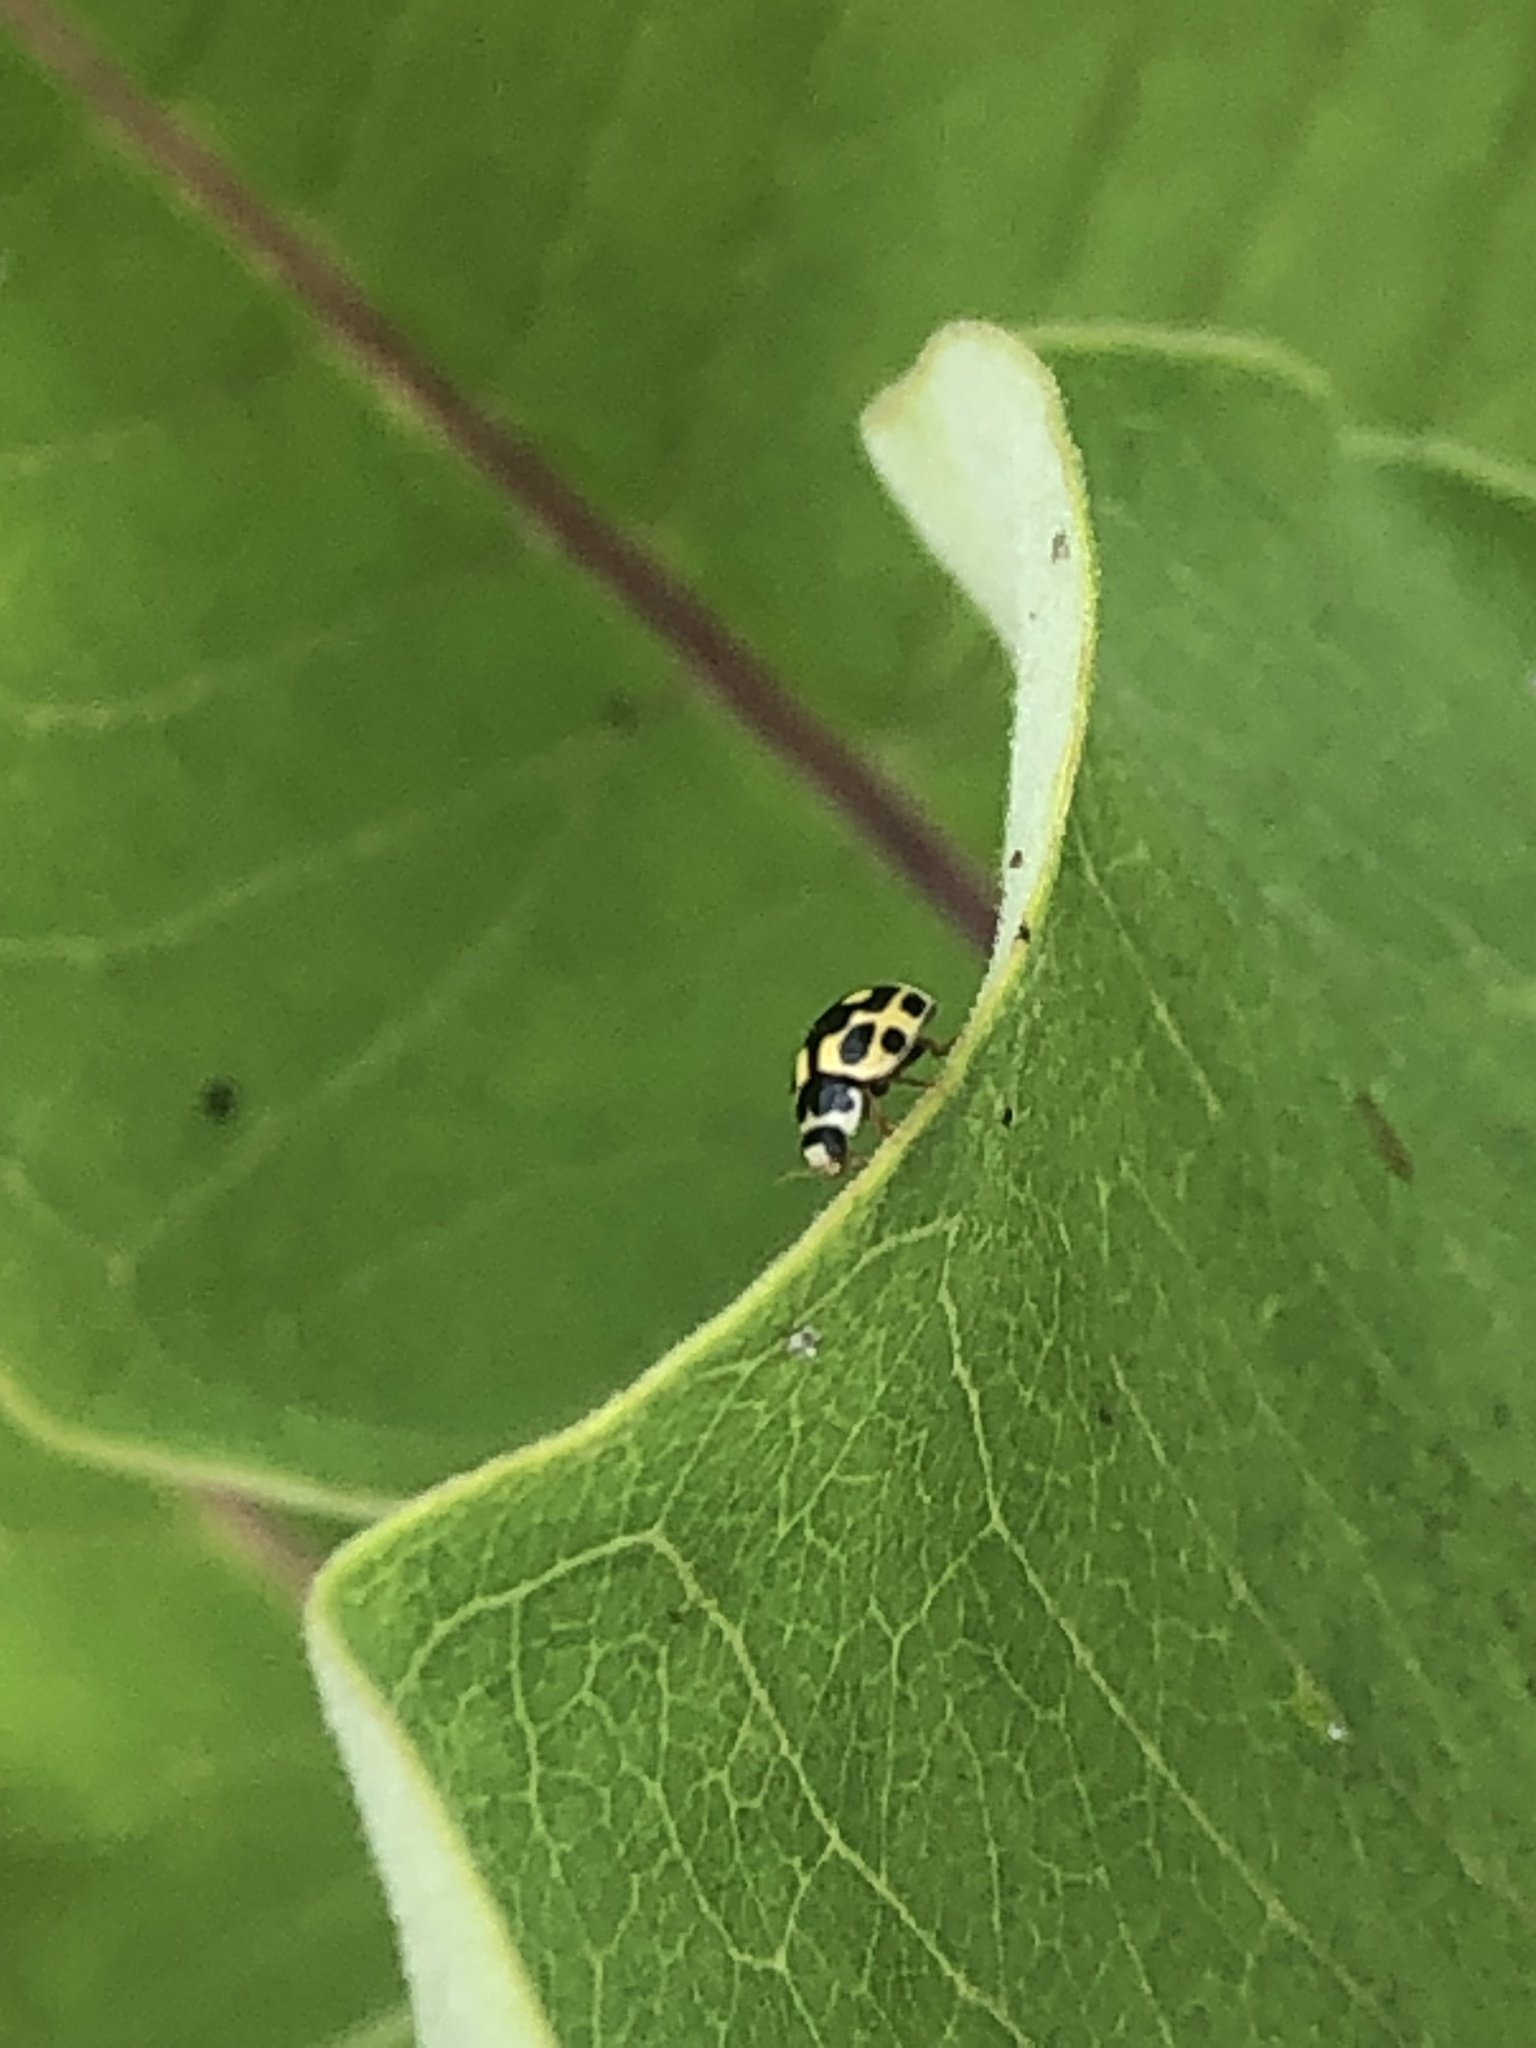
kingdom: Animalia
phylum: Arthropoda
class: Insecta
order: Coleoptera
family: Coccinellidae
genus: Propylaea
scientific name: Propylaea quatuordecimpunctata
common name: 14-spotted ladybird beetle
